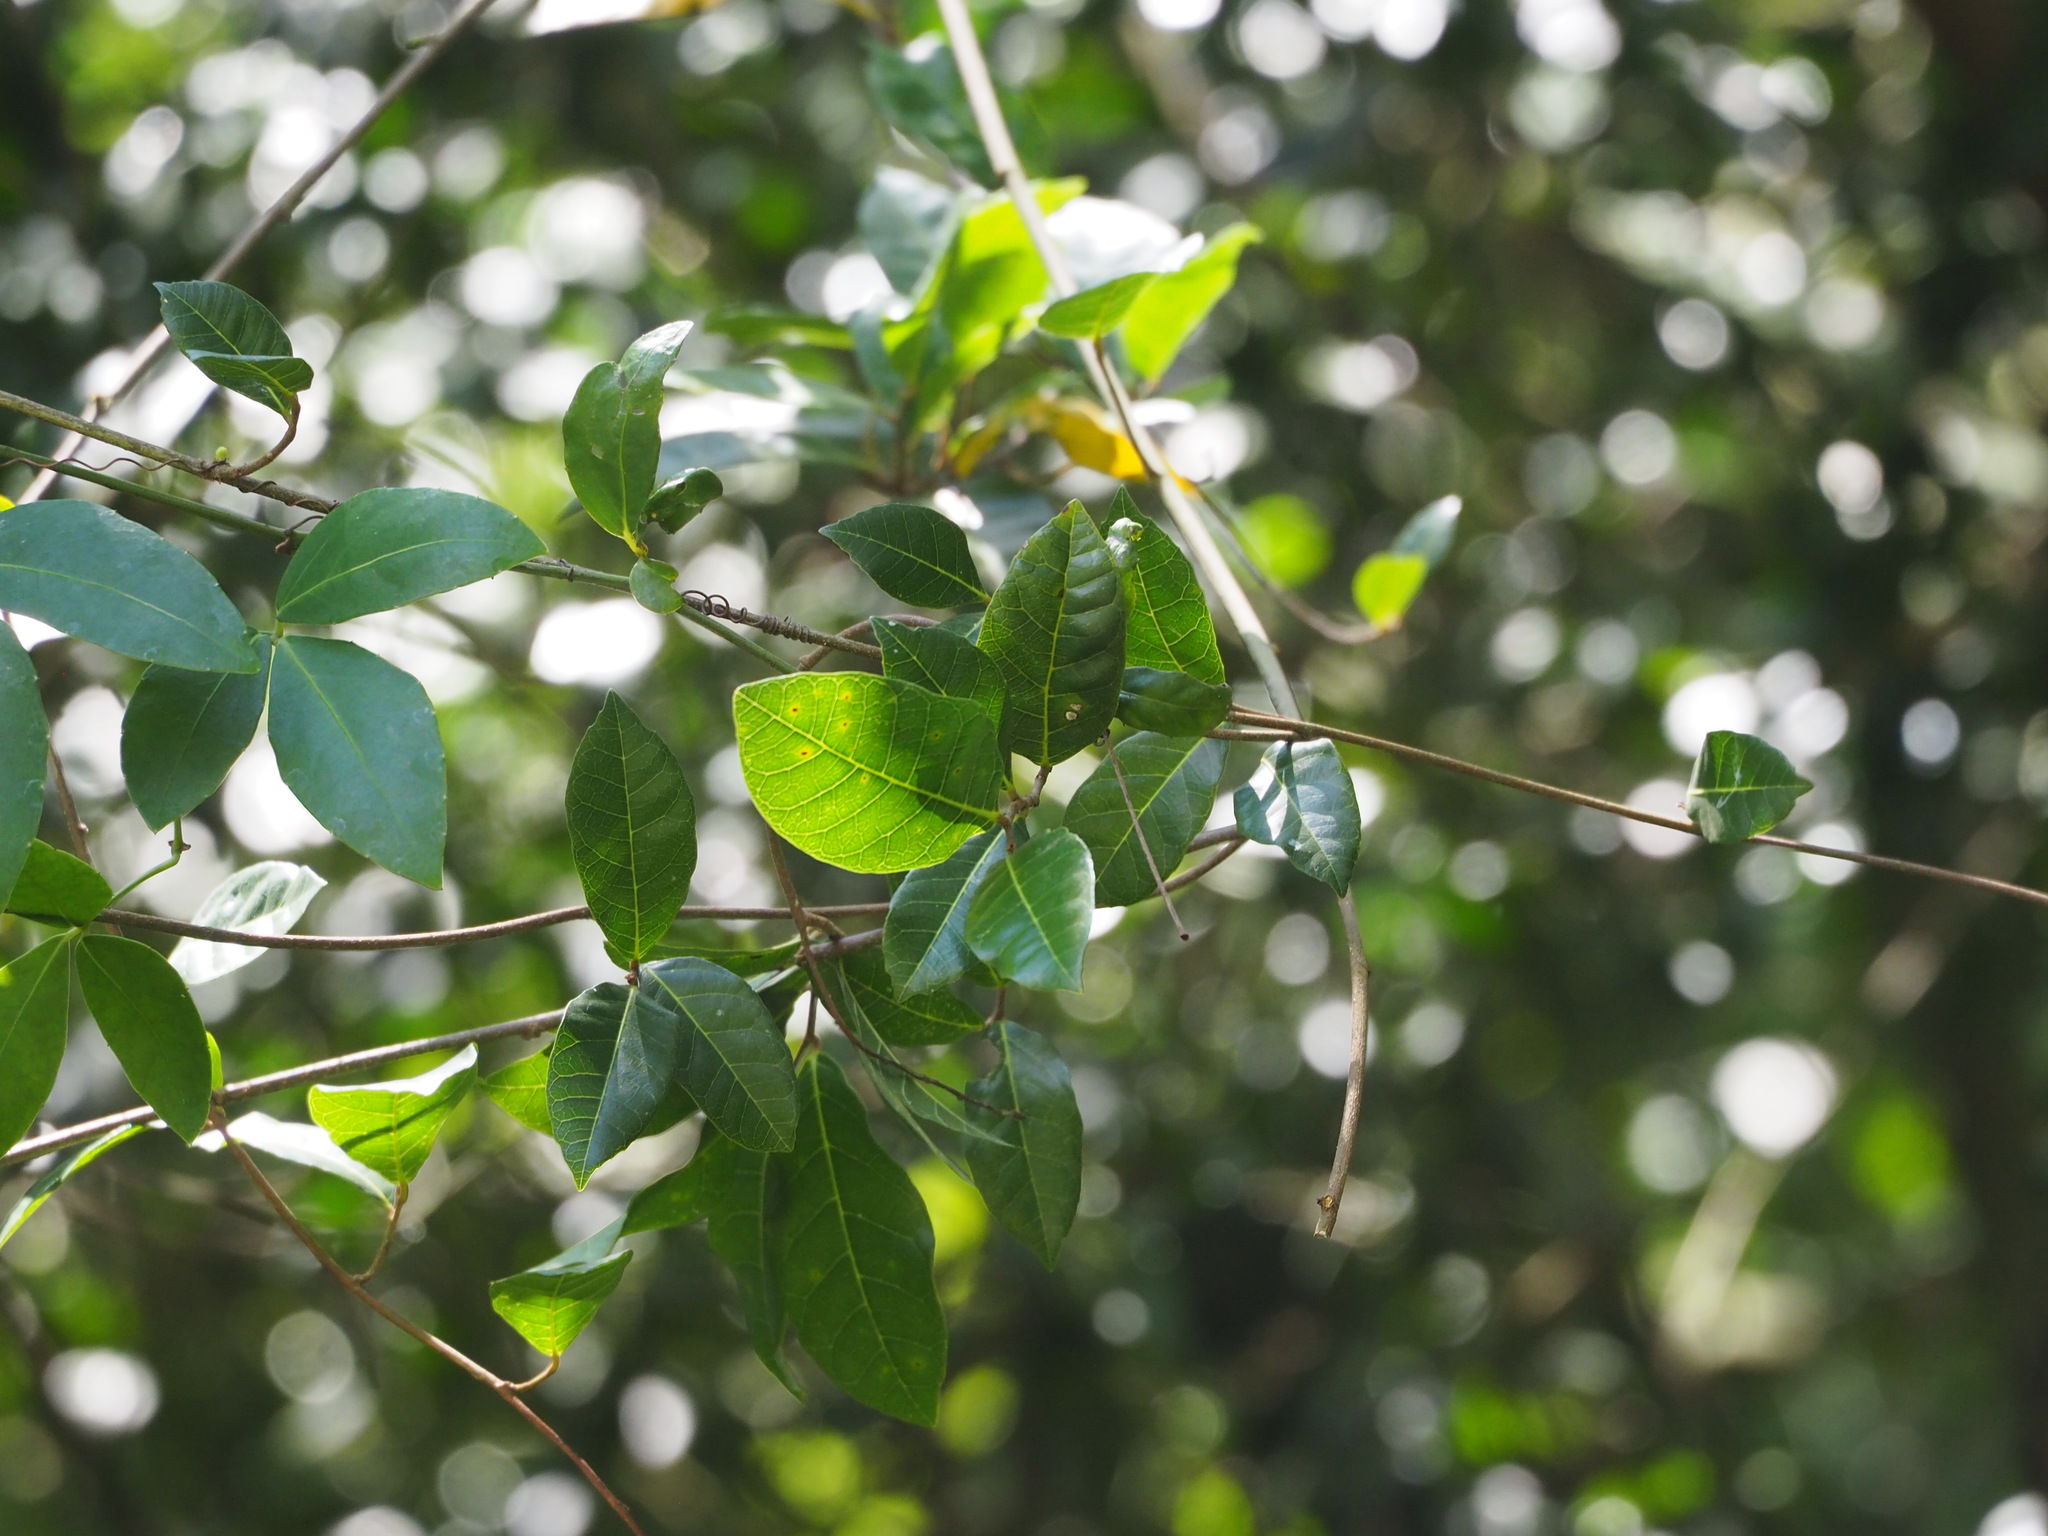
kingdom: Plantae
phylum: Tracheophyta
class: Magnoliopsida
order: Rosales
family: Moraceae
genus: Malaisia
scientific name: Malaisia scandens
